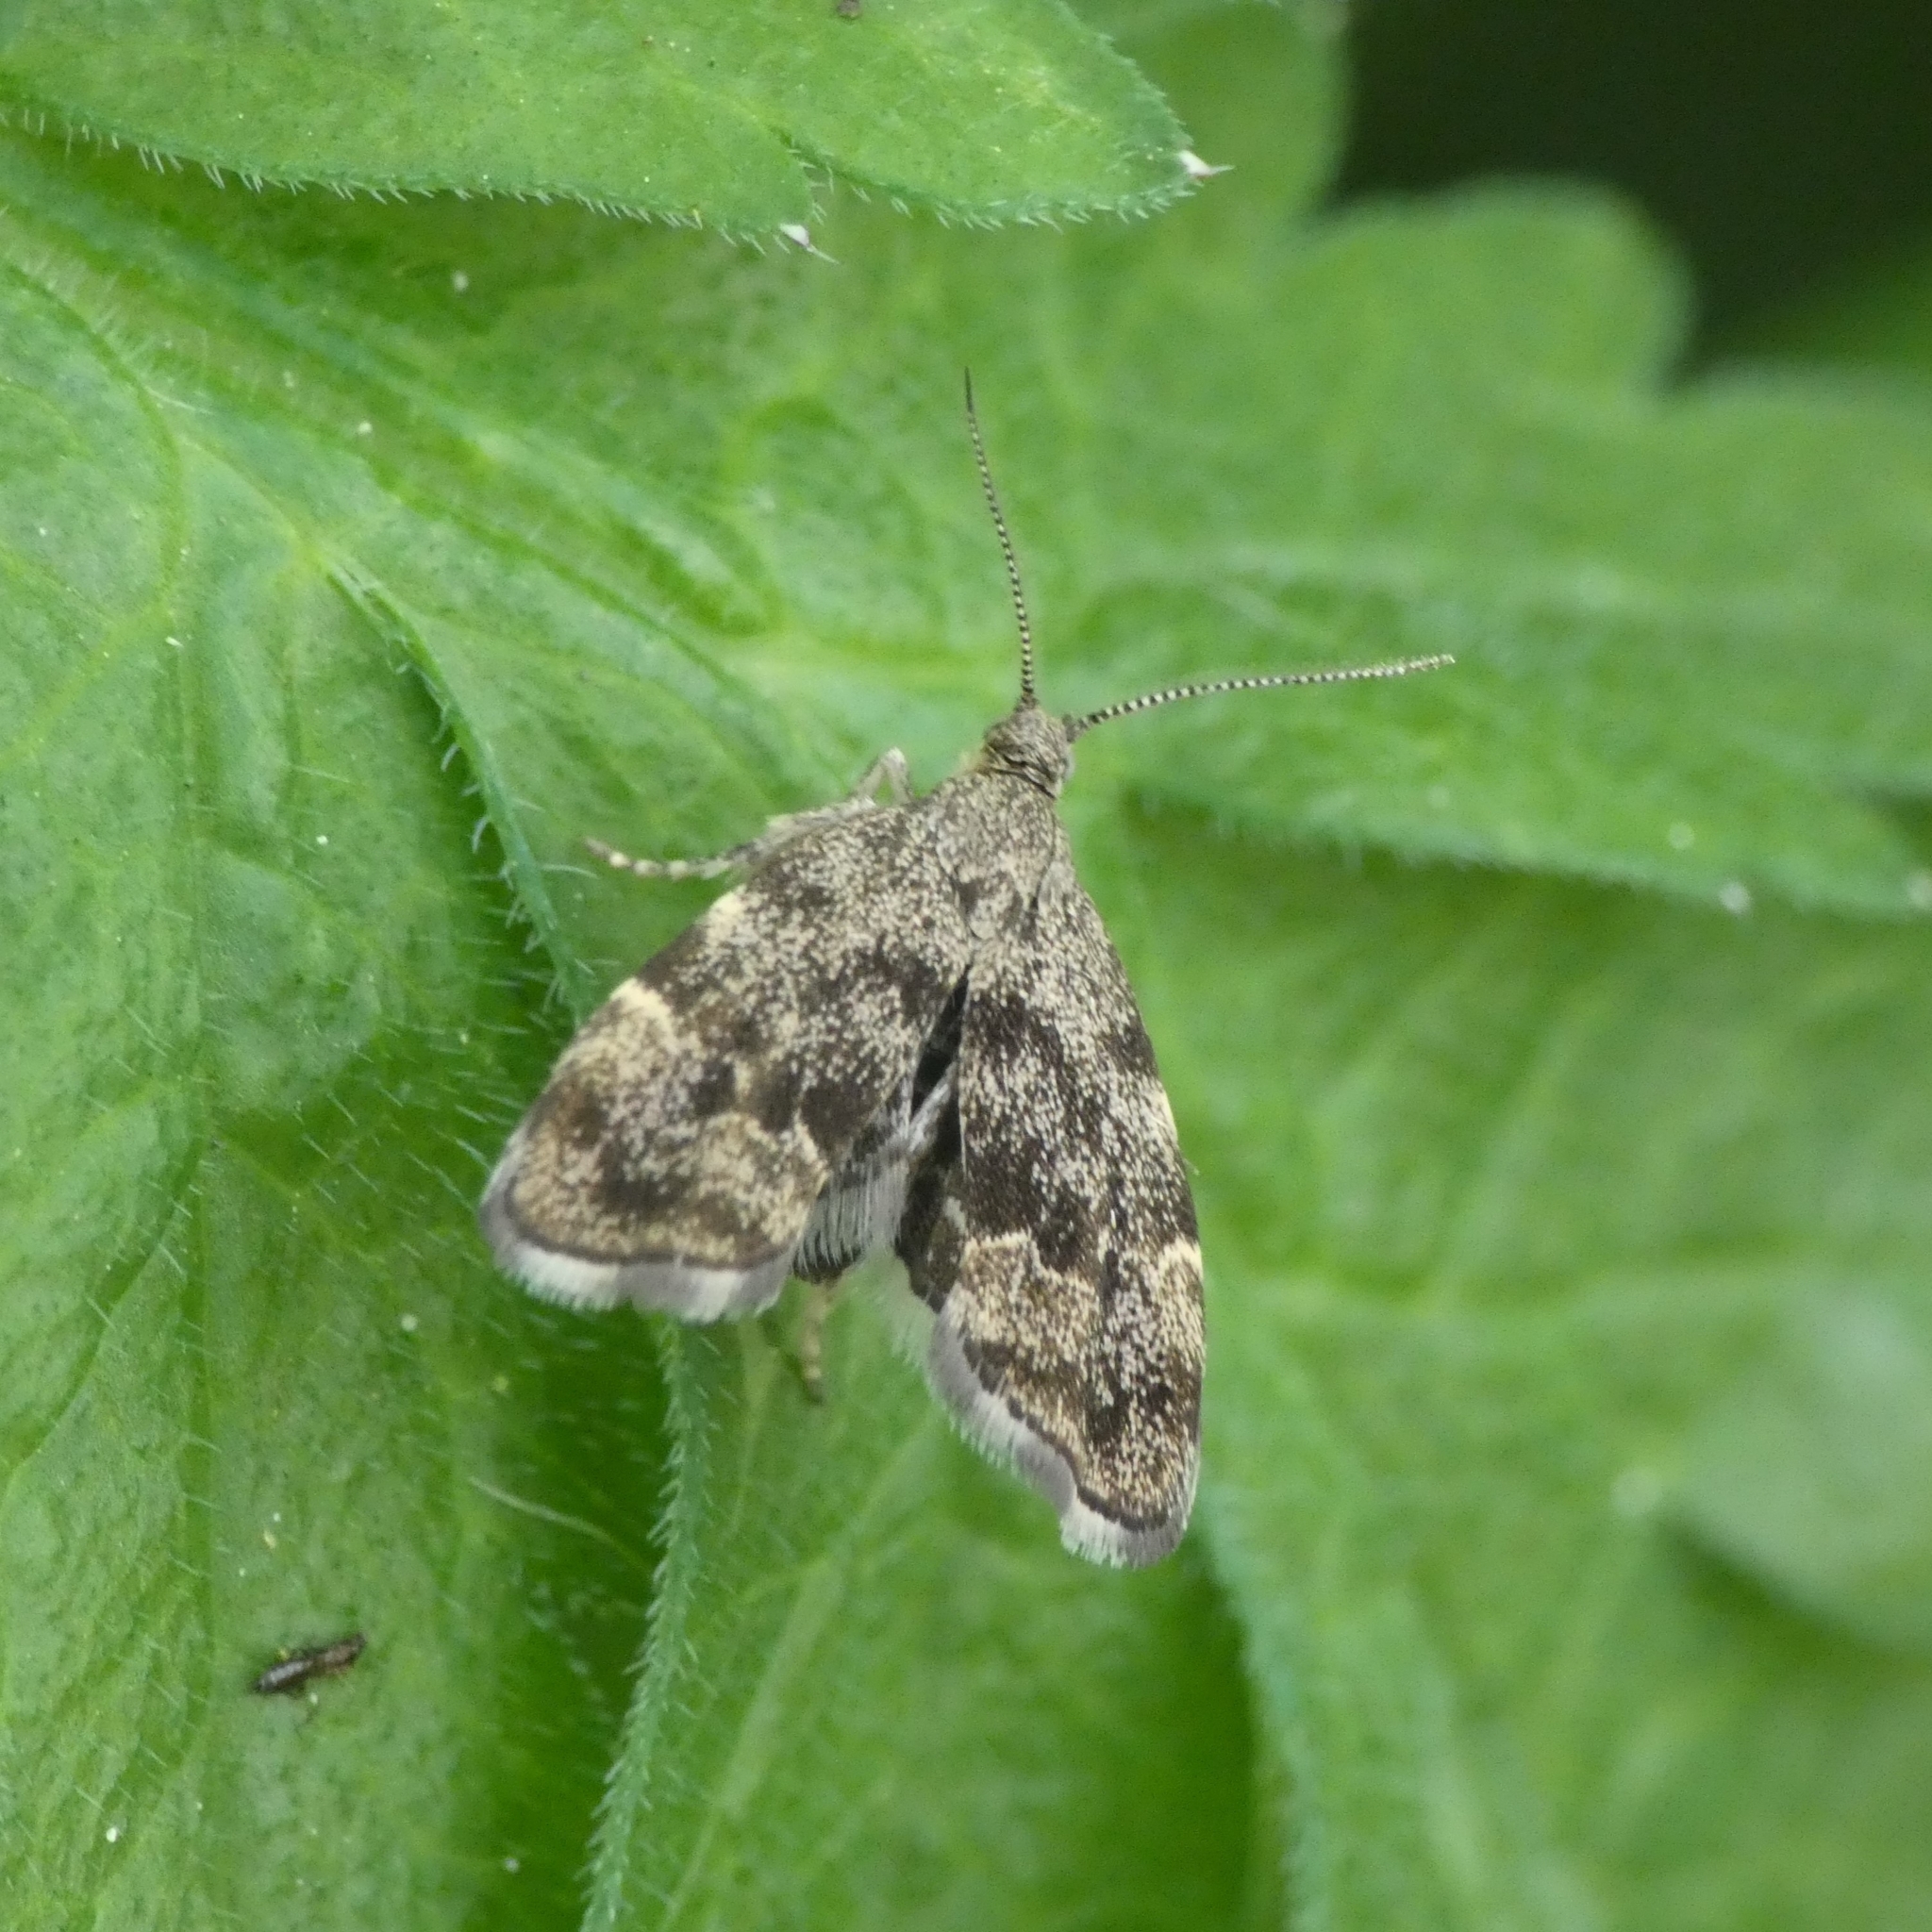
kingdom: Animalia
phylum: Arthropoda
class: Insecta
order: Lepidoptera
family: Choreutidae
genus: Anthophila
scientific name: Anthophila fabriciana
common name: Nettle-tap
